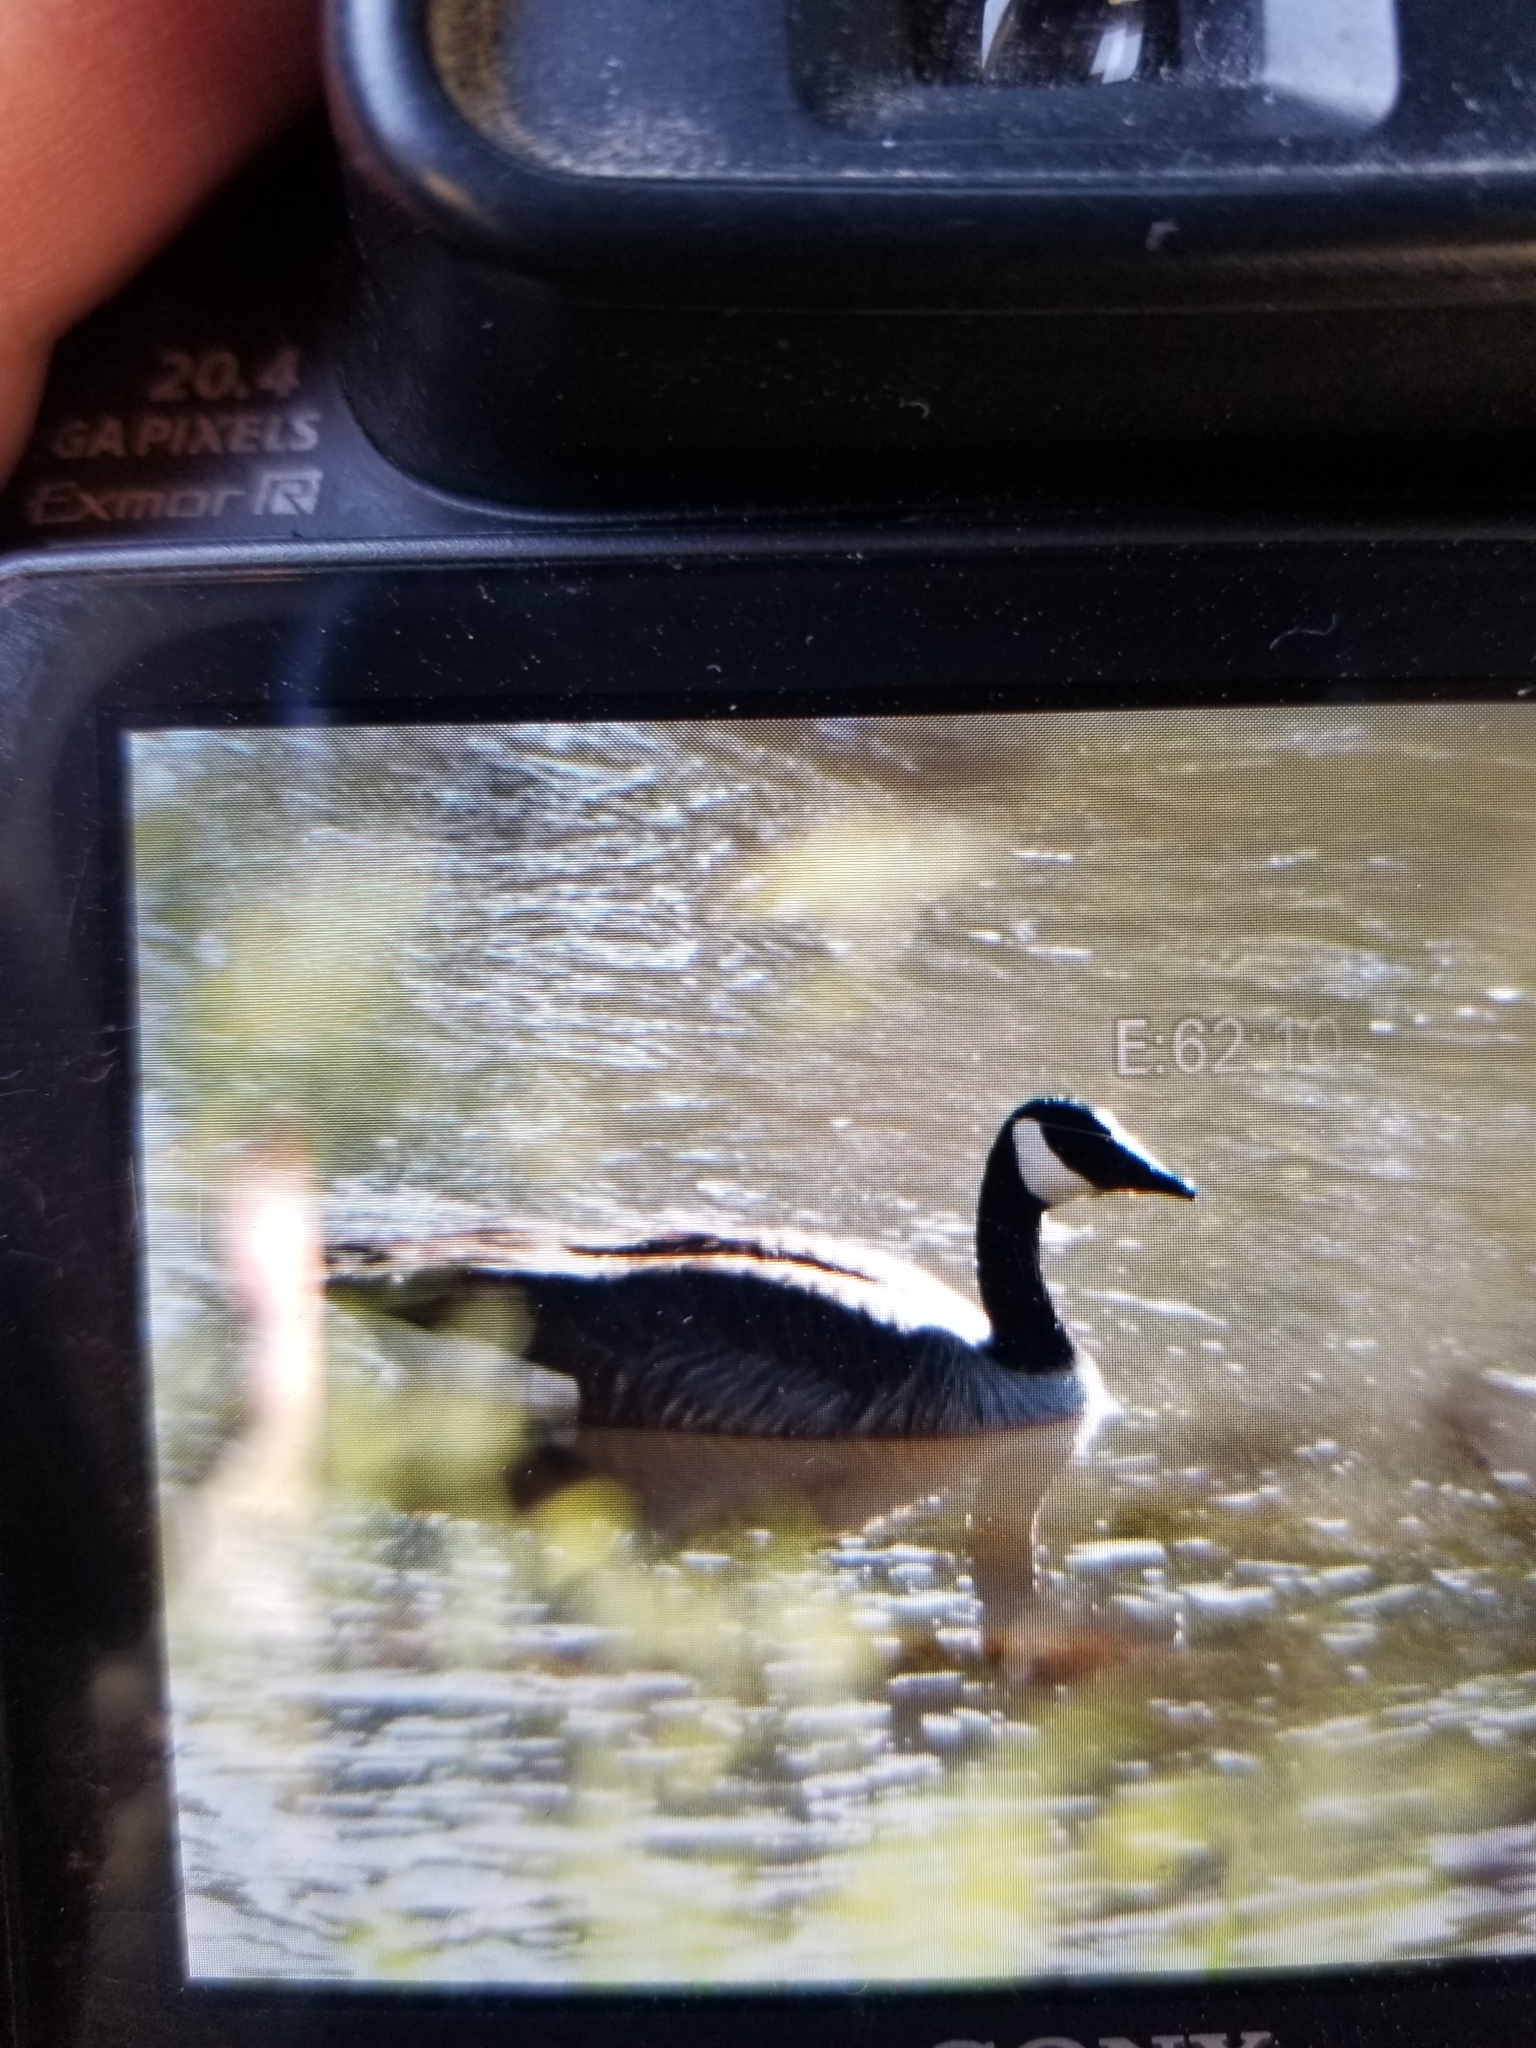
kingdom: Animalia
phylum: Chordata
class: Aves
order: Anseriformes
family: Anatidae
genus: Branta
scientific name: Branta canadensis
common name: Canada goose
